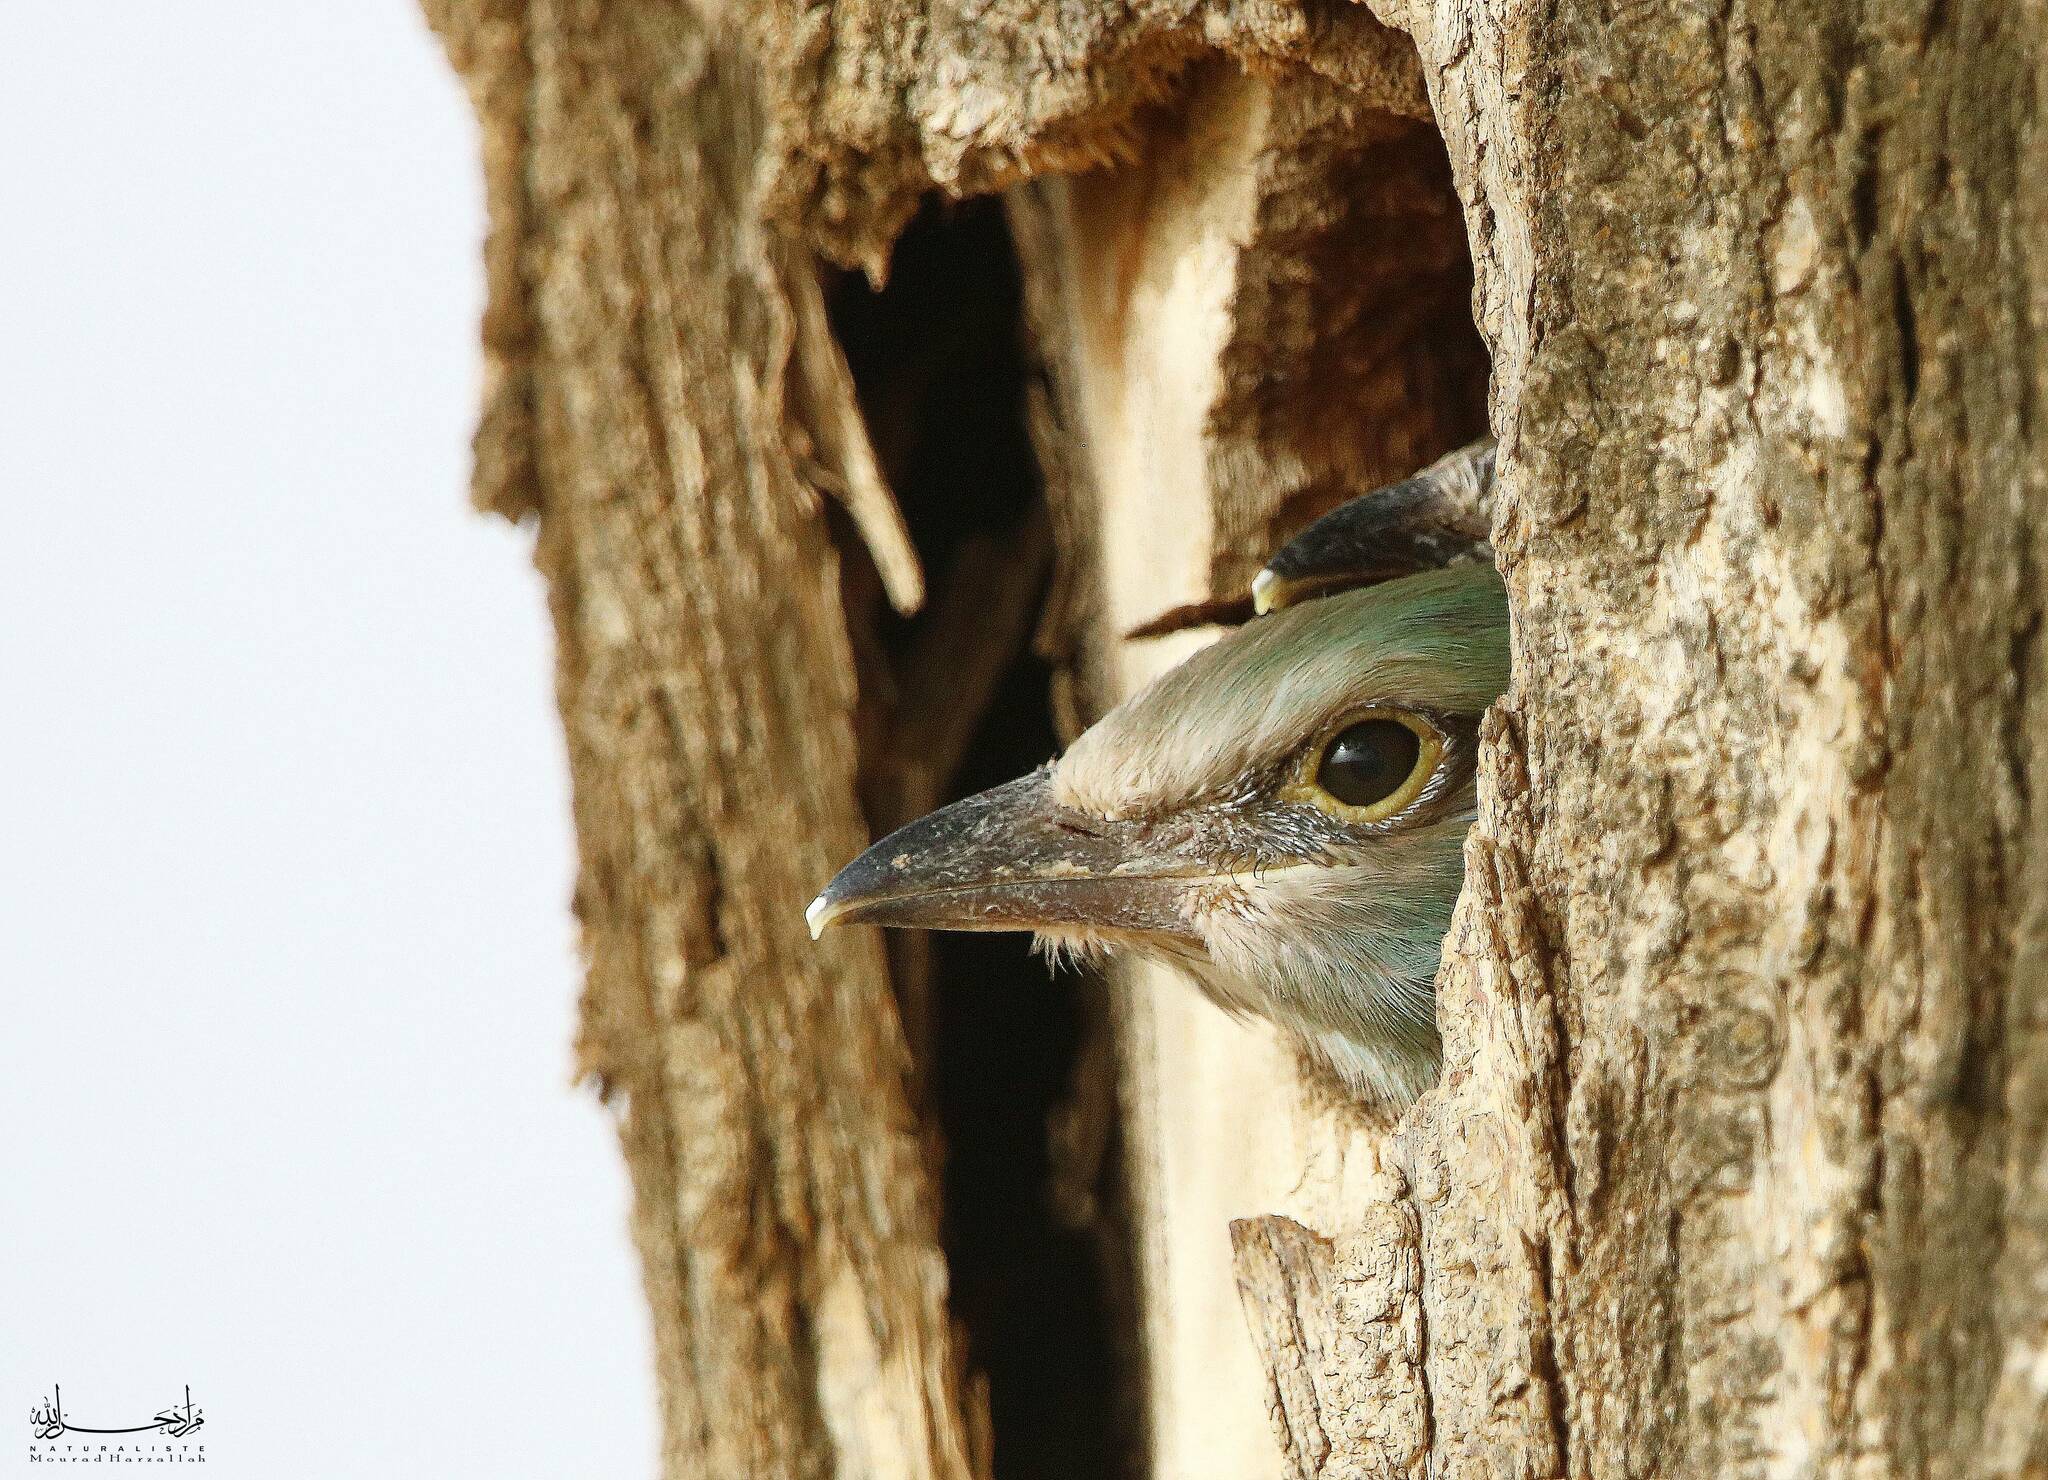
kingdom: Animalia
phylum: Chordata
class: Aves
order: Coraciiformes
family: Coraciidae
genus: Coracias
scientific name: Coracias garrulus
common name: European roller
